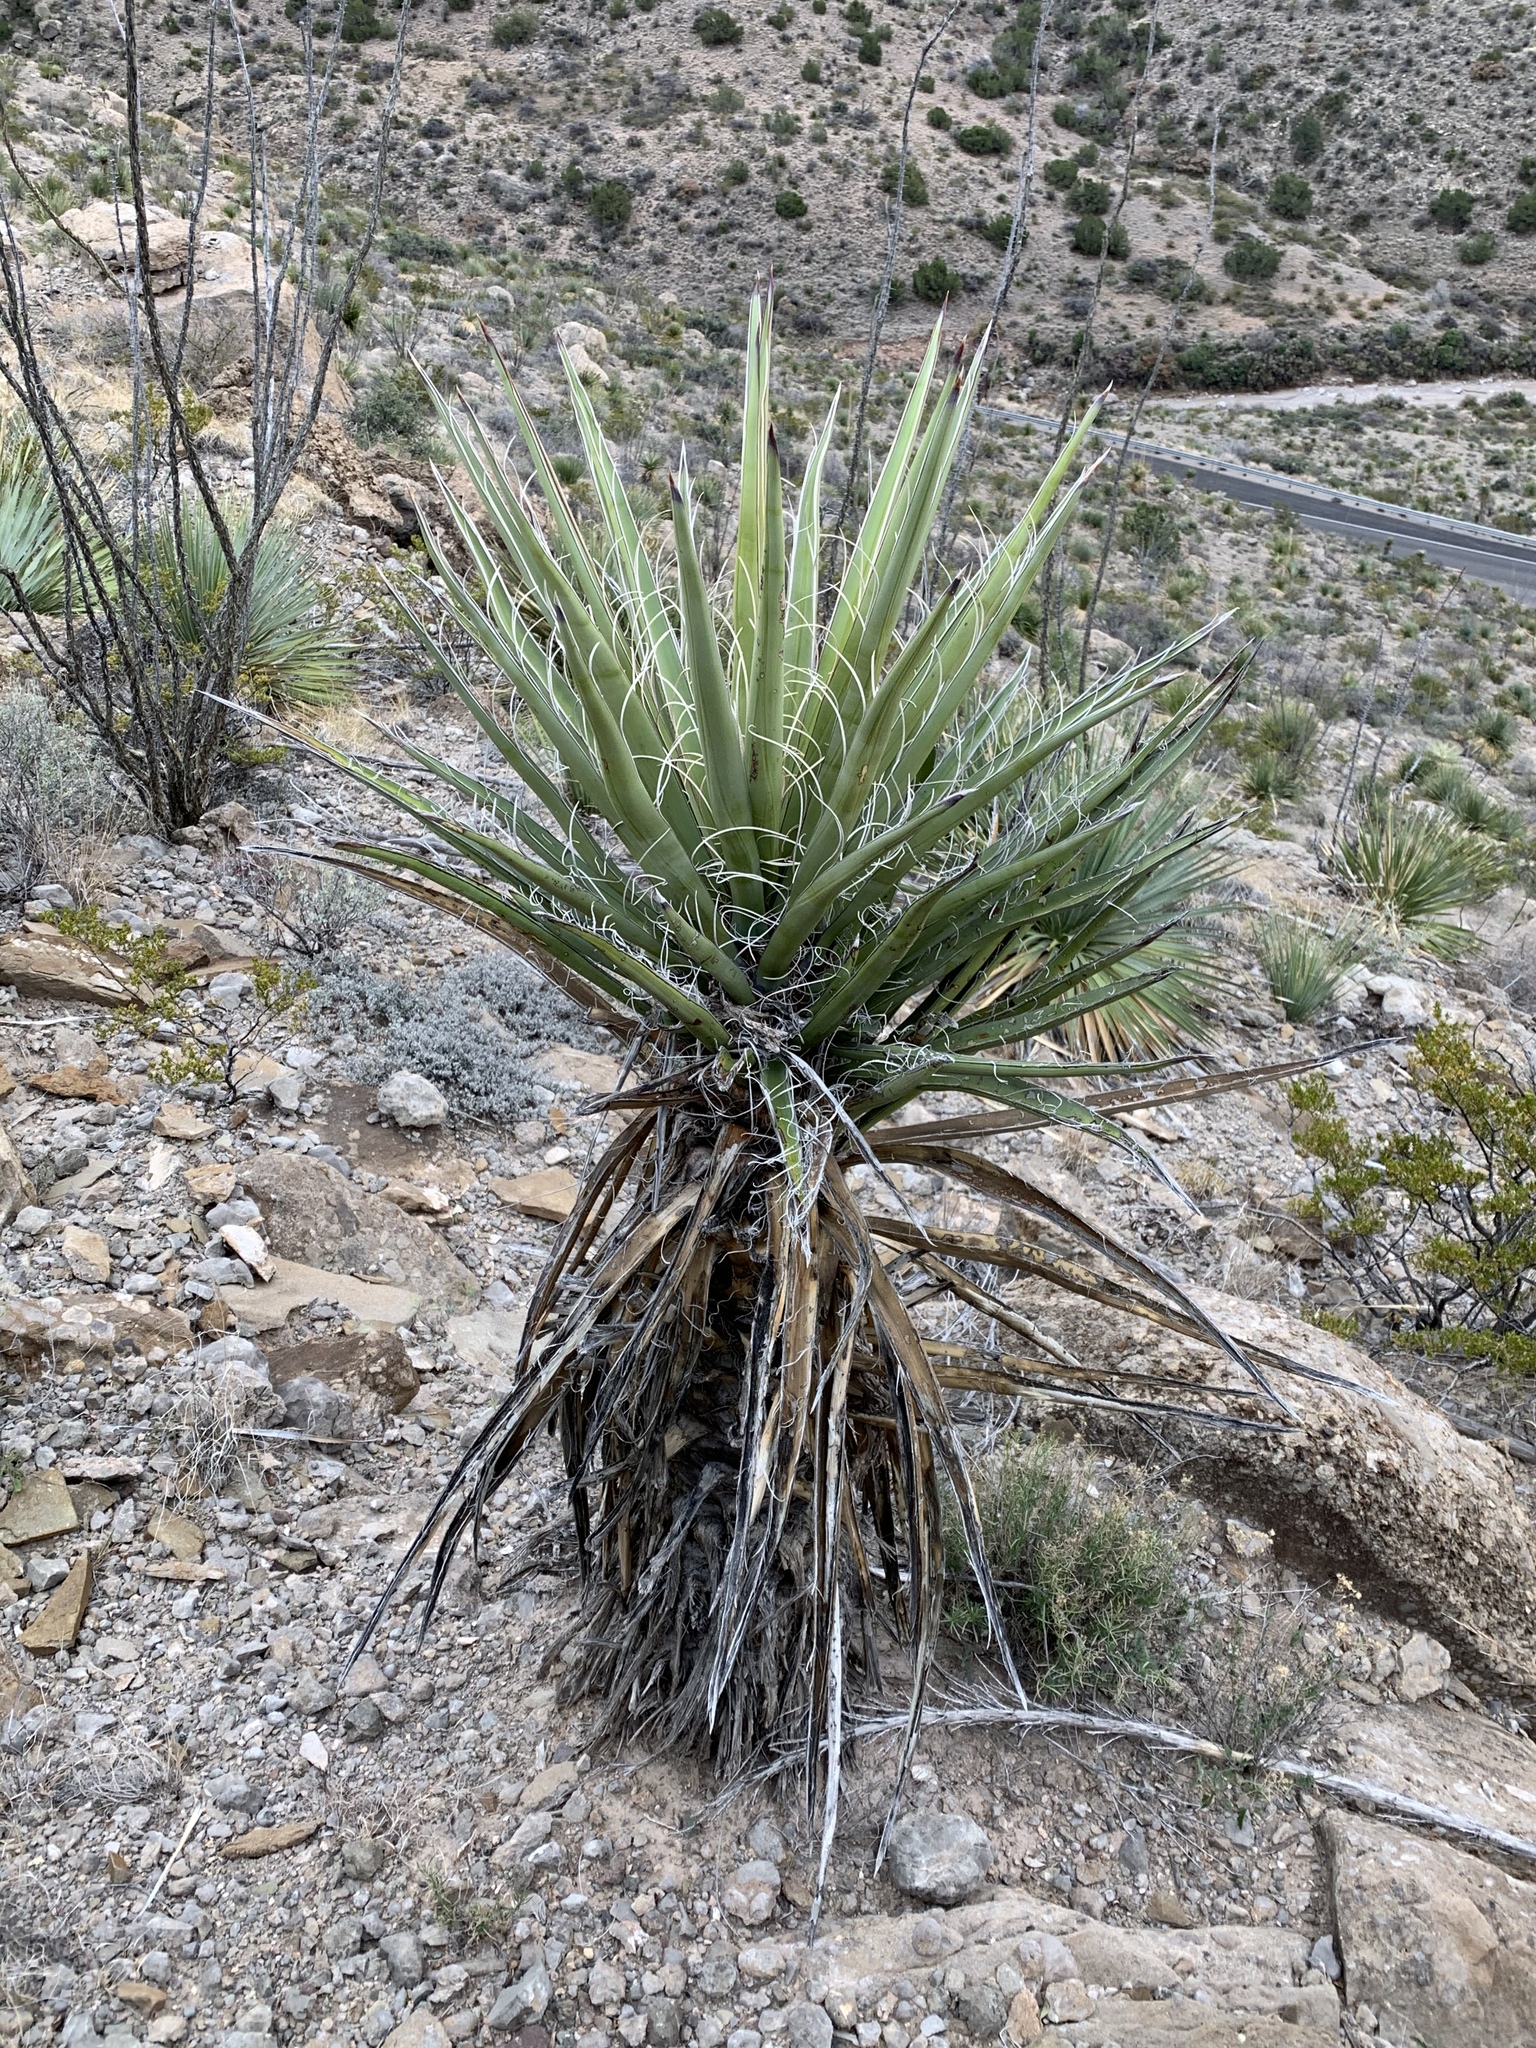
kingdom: Plantae
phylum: Tracheophyta
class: Liliopsida
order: Asparagales
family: Asparagaceae
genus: Yucca
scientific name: Yucca treculiana
